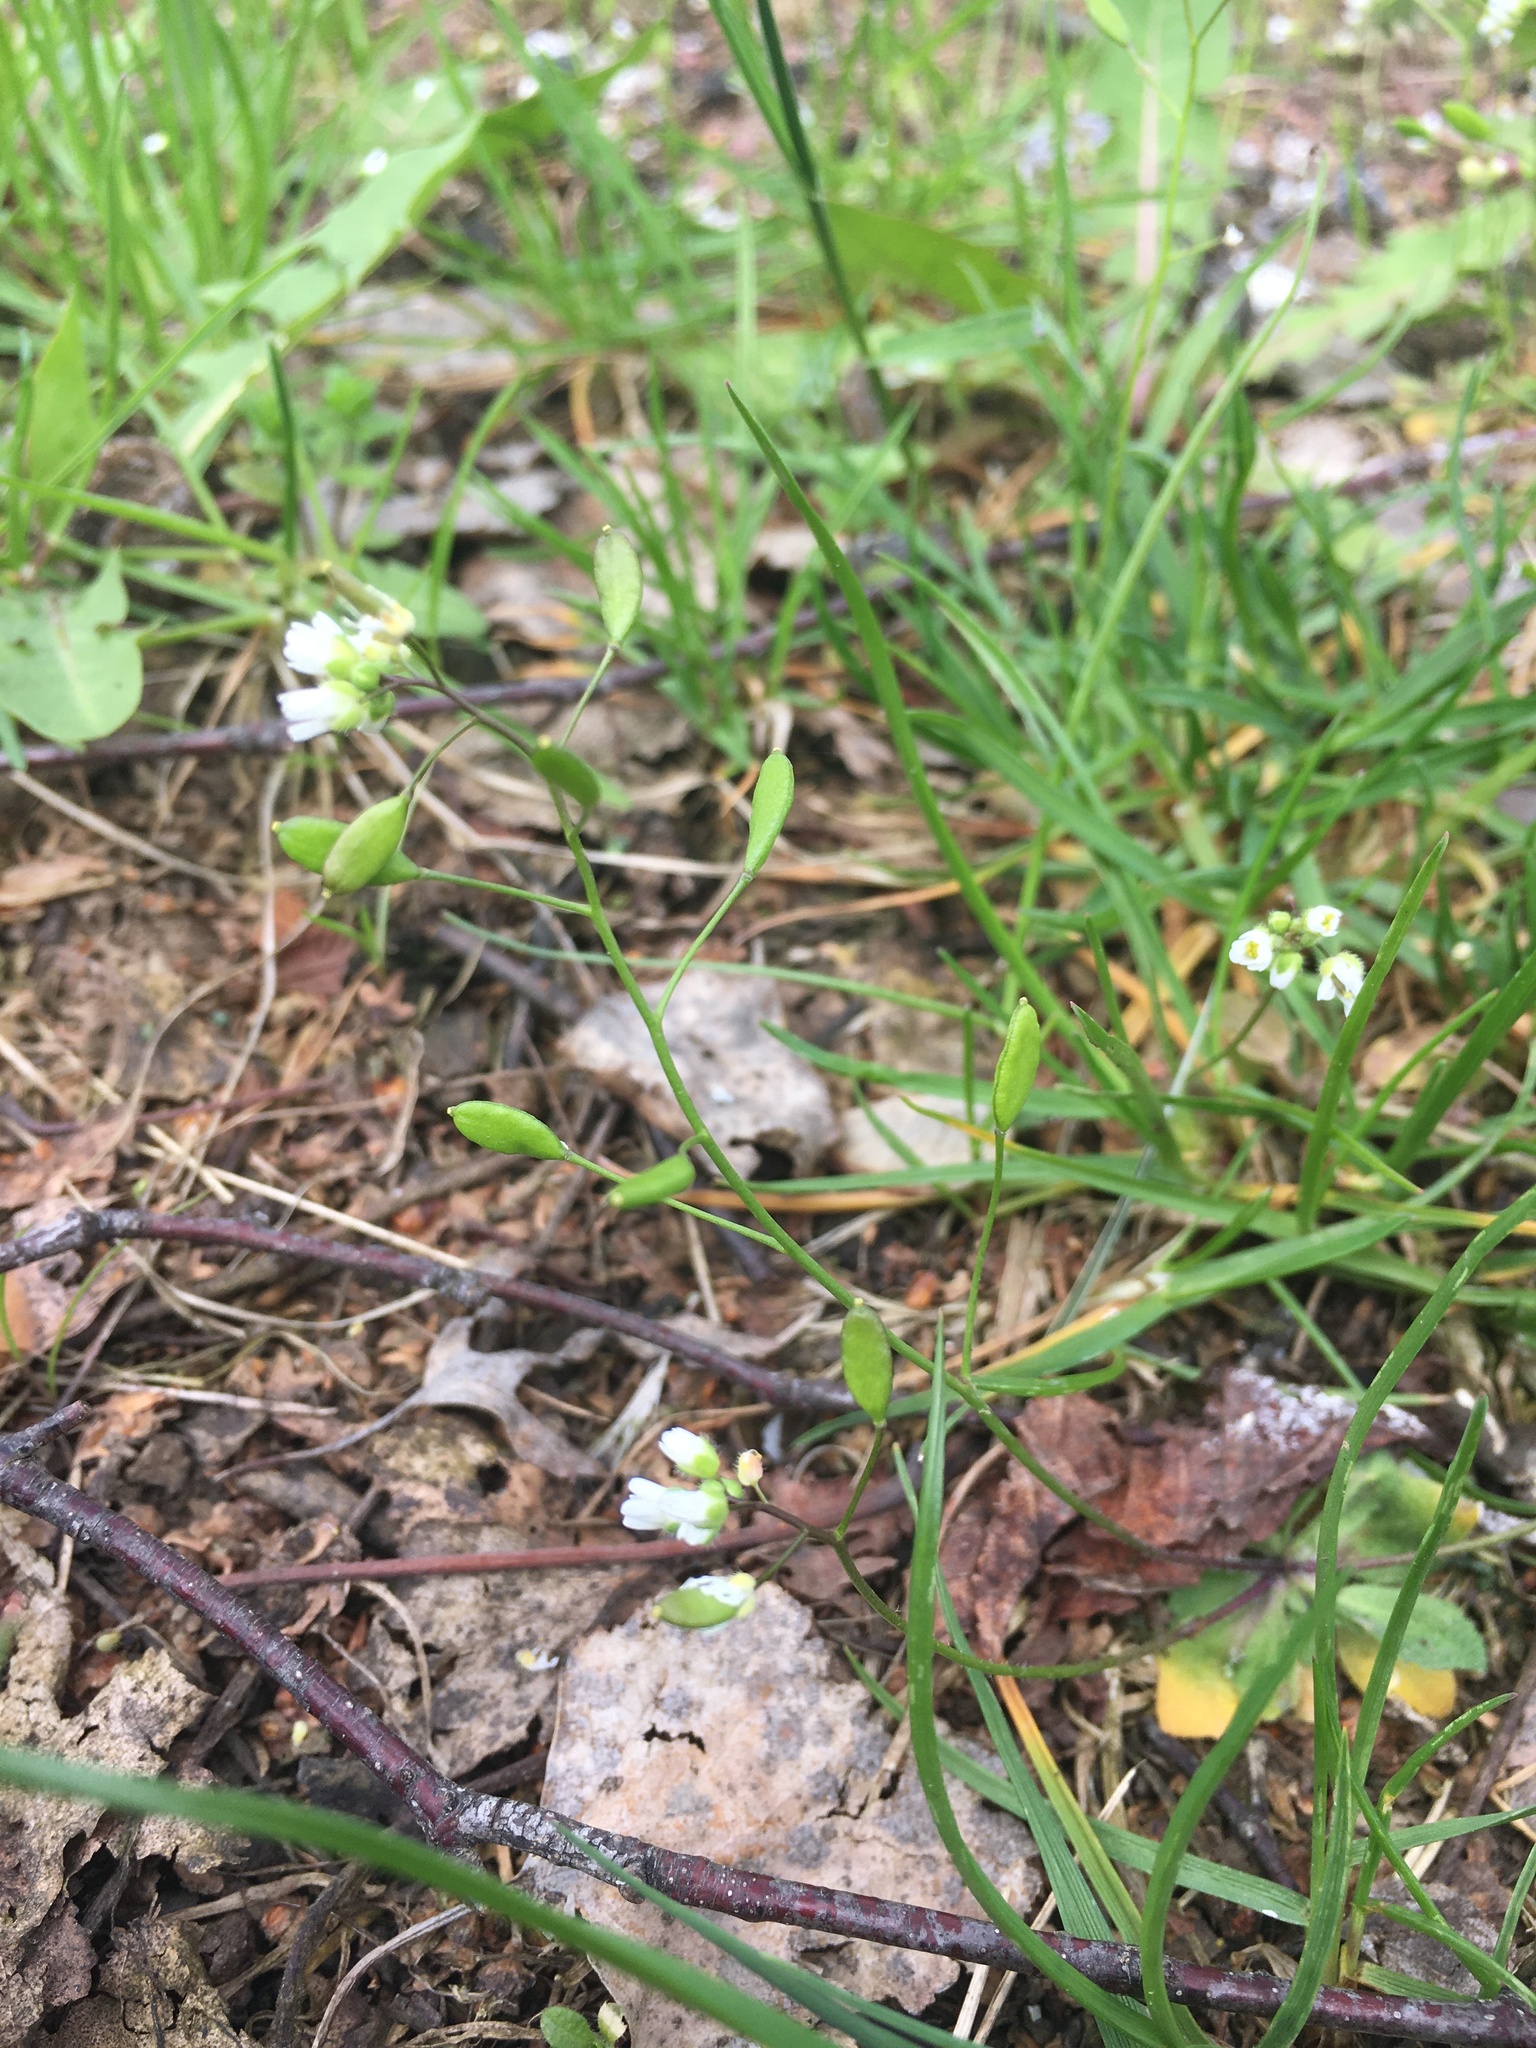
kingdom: Plantae
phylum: Tracheophyta
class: Magnoliopsida
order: Brassicales
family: Brassicaceae
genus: Draba
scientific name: Draba verna
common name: Spring draba
